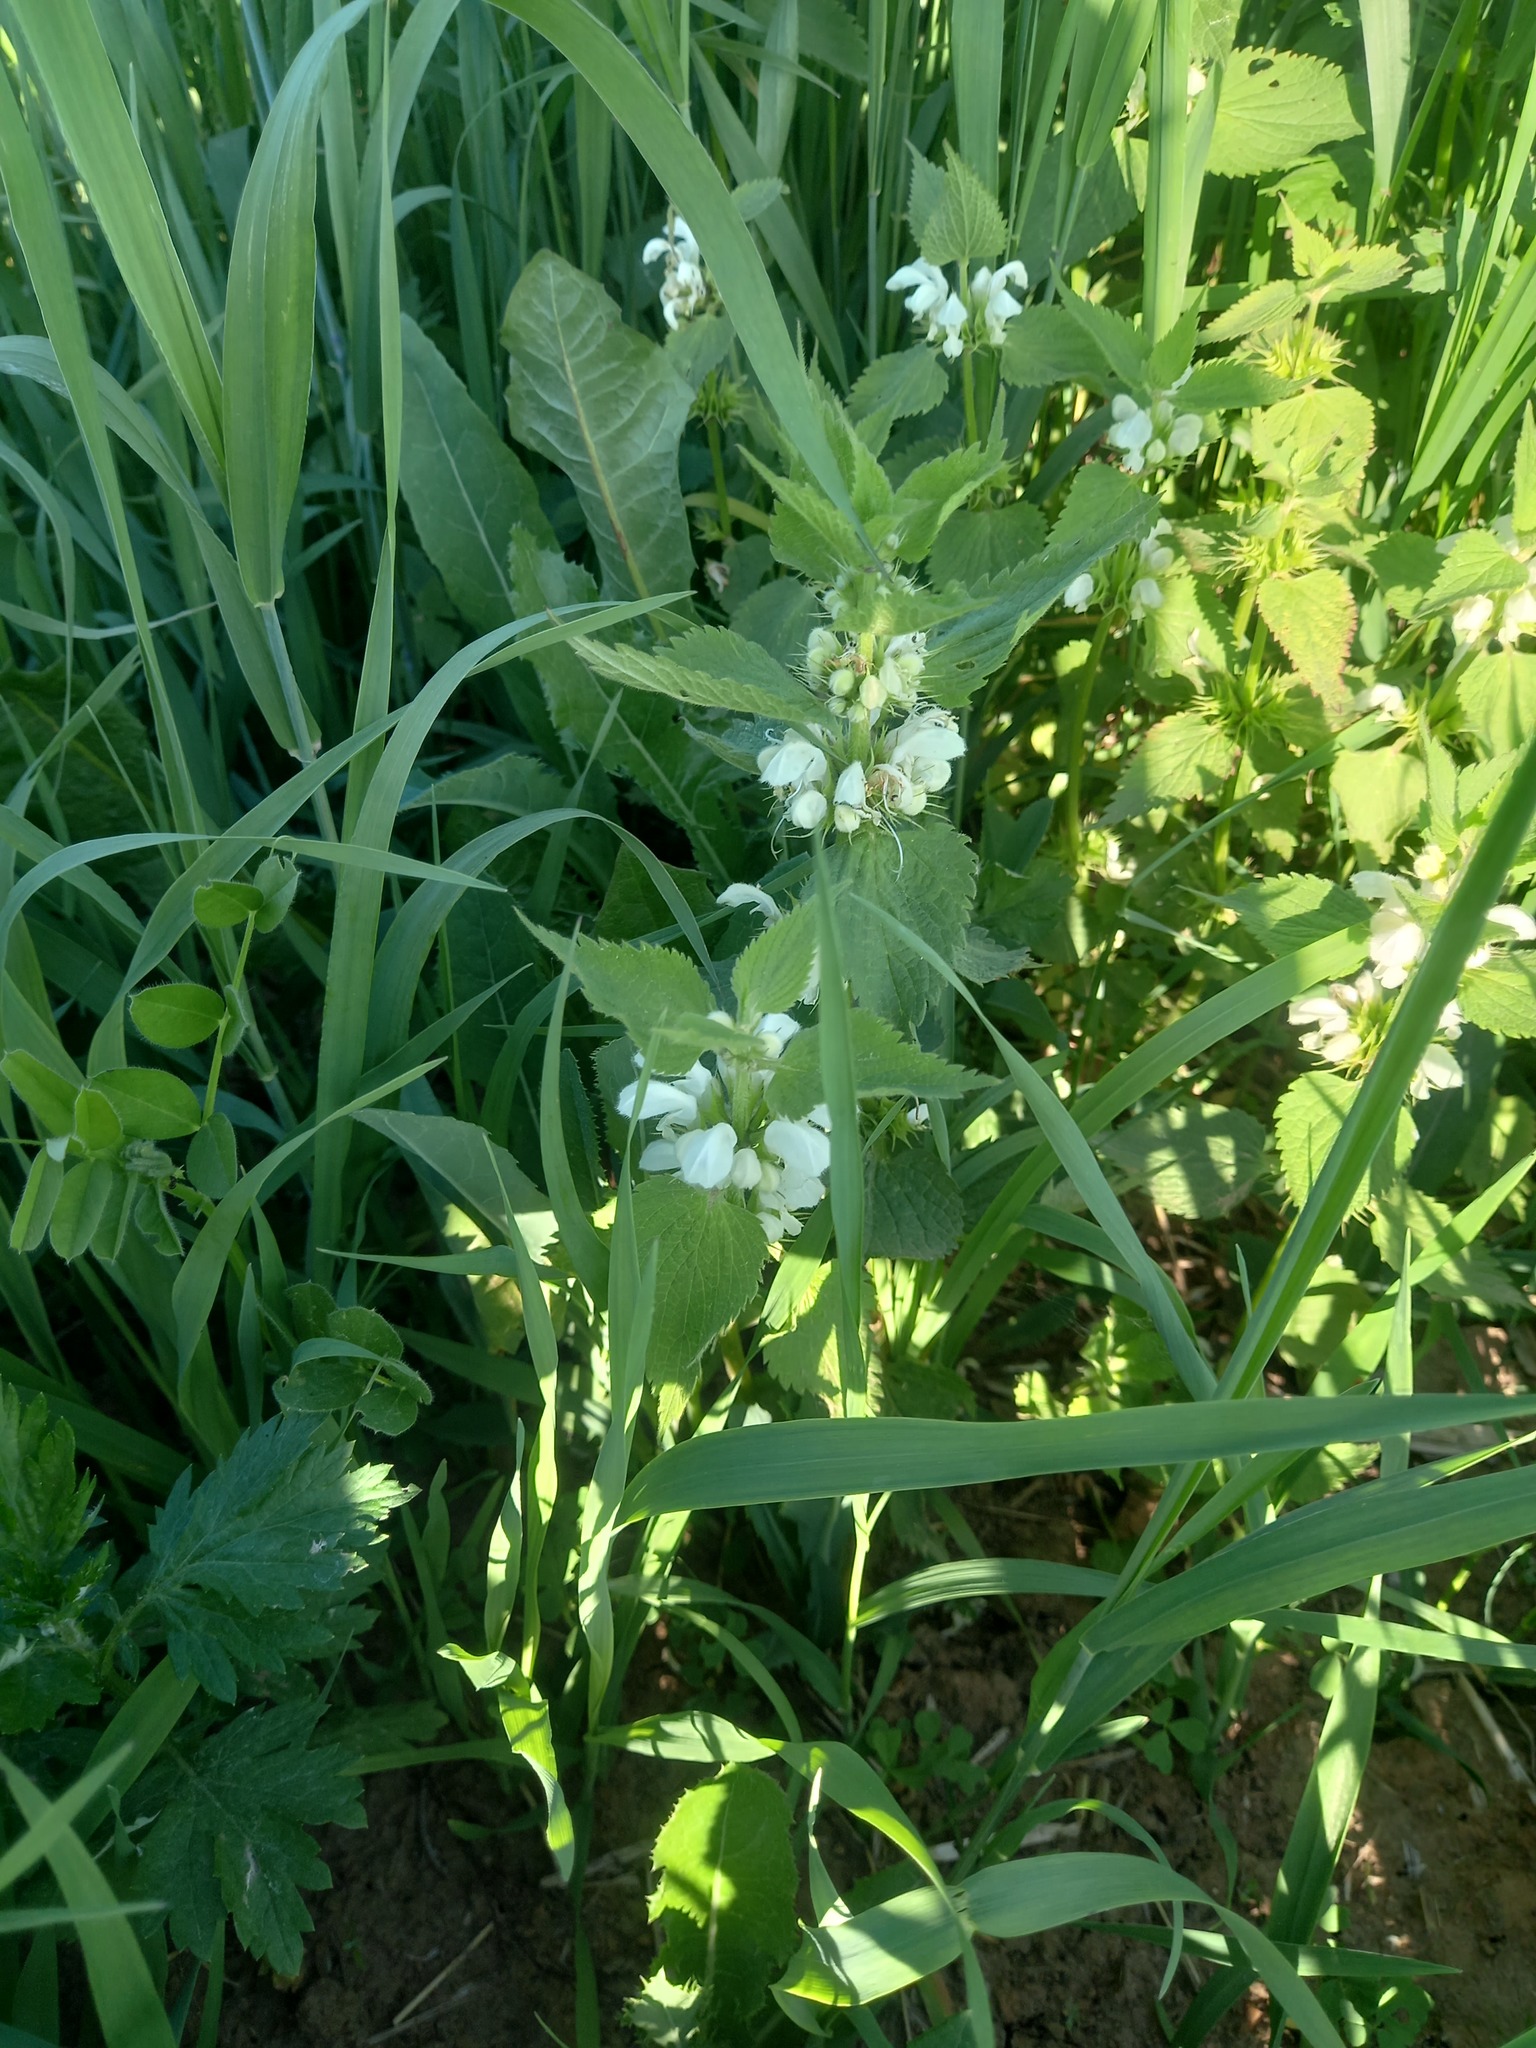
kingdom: Plantae
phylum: Tracheophyta
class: Magnoliopsida
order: Lamiales
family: Lamiaceae
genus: Lamium
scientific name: Lamium album
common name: White dead-nettle
